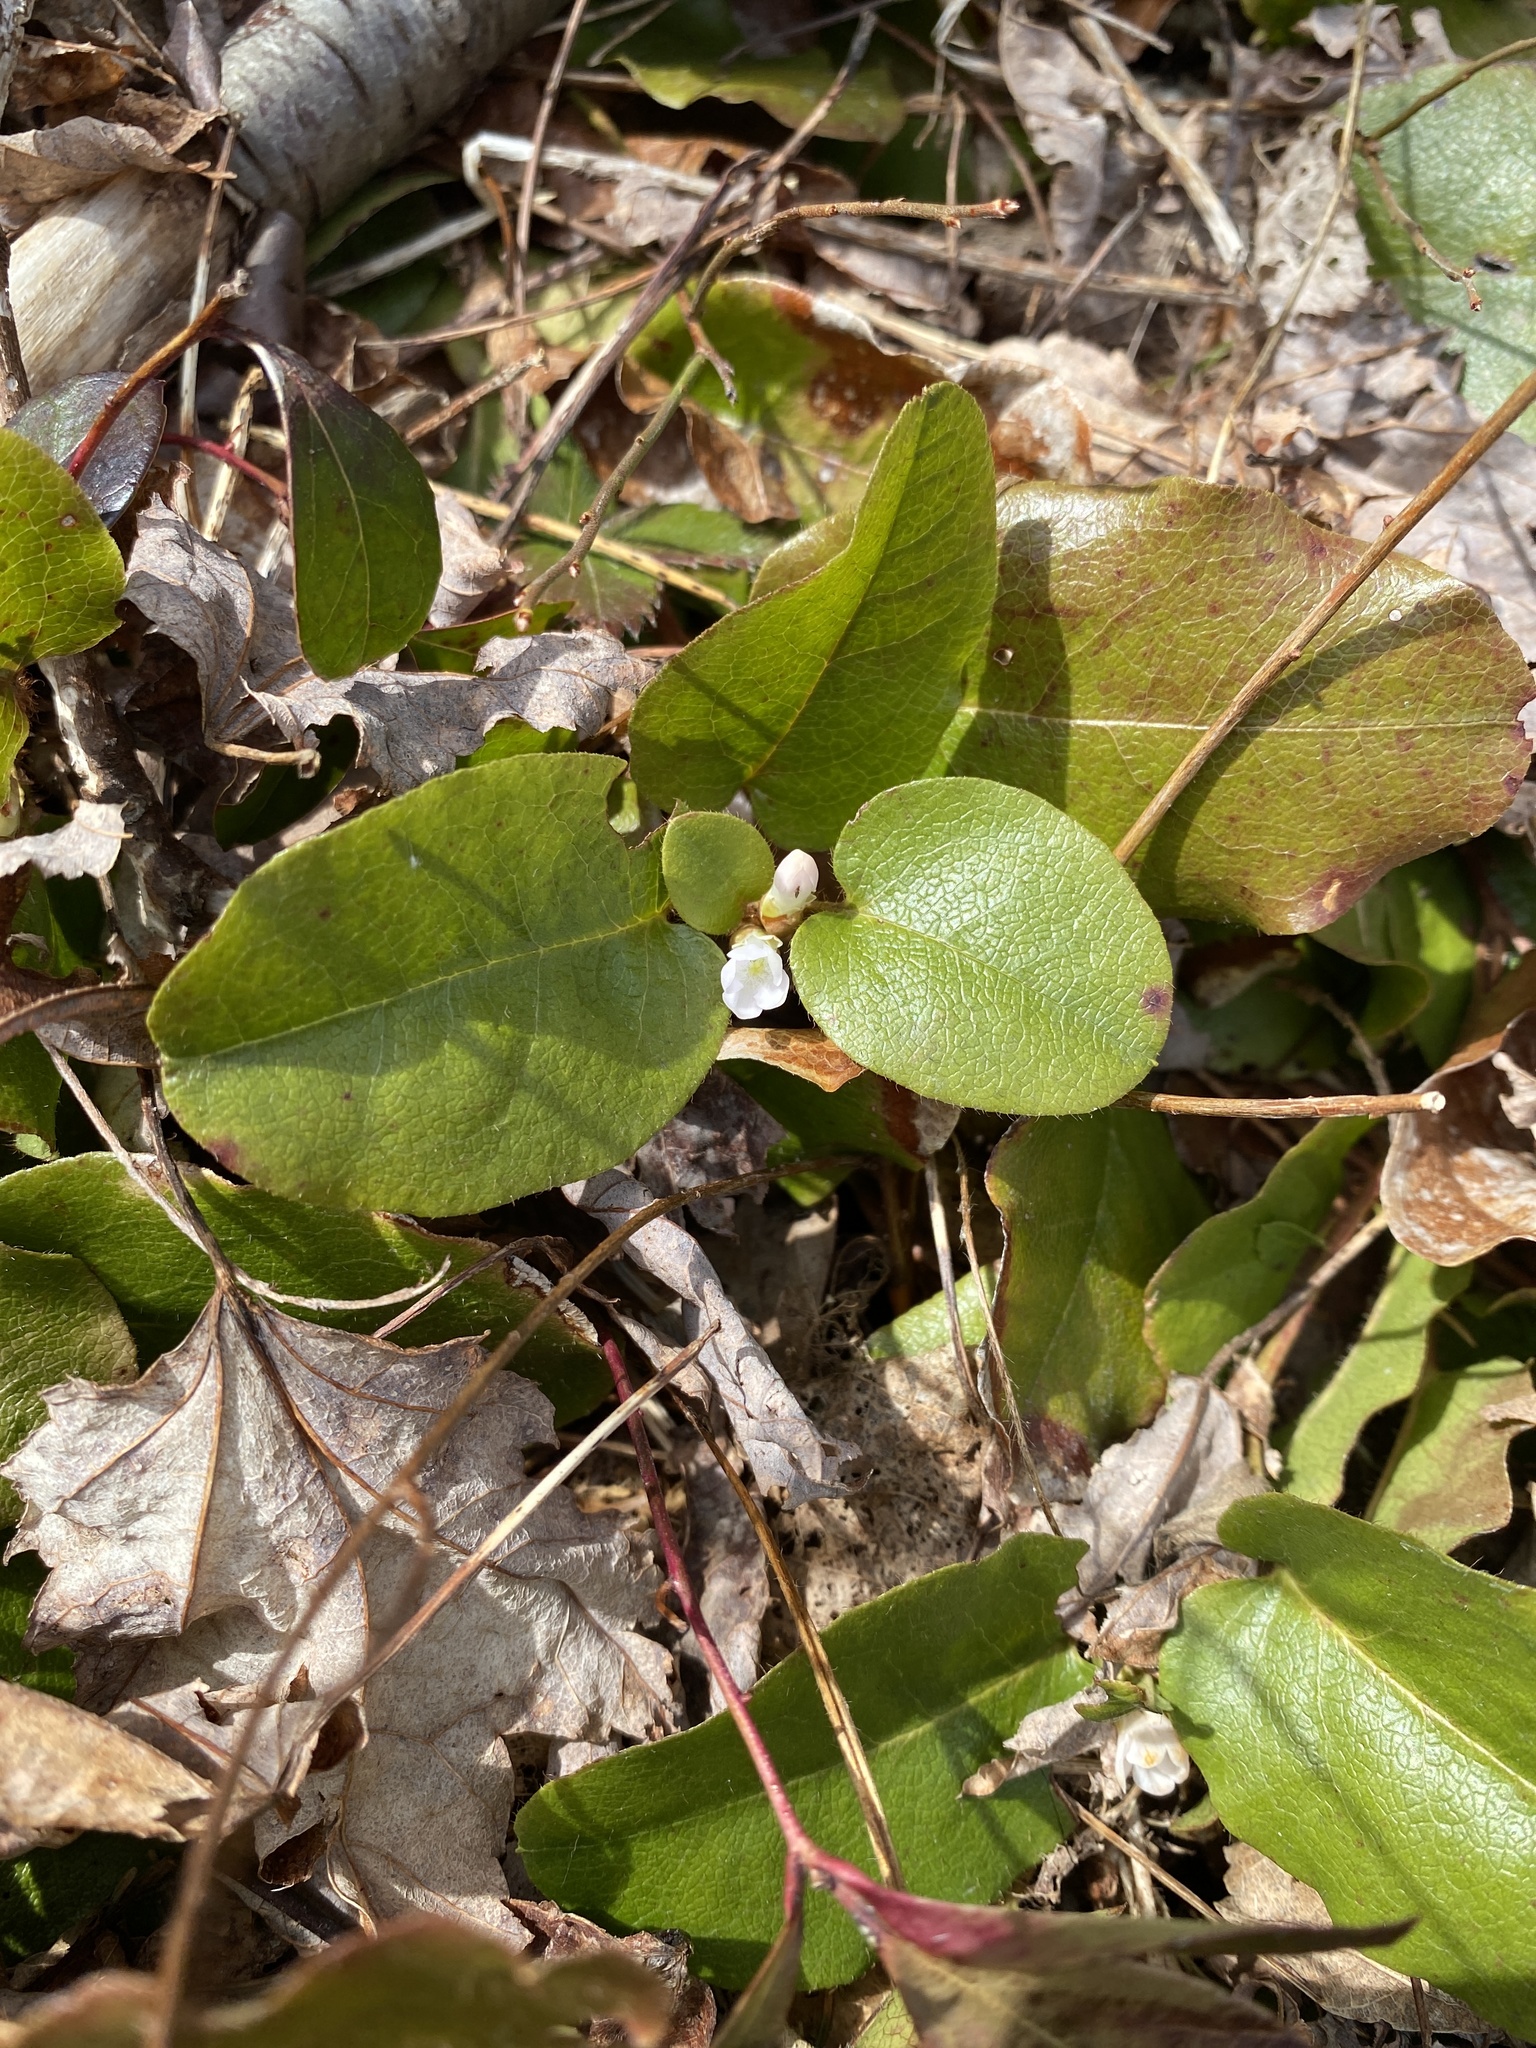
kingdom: Plantae
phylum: Tracheophyta
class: Magnoliopsida
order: Ericales
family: Ericaceae
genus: Epigaea
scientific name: Epigaea repens
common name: Gravelroot
